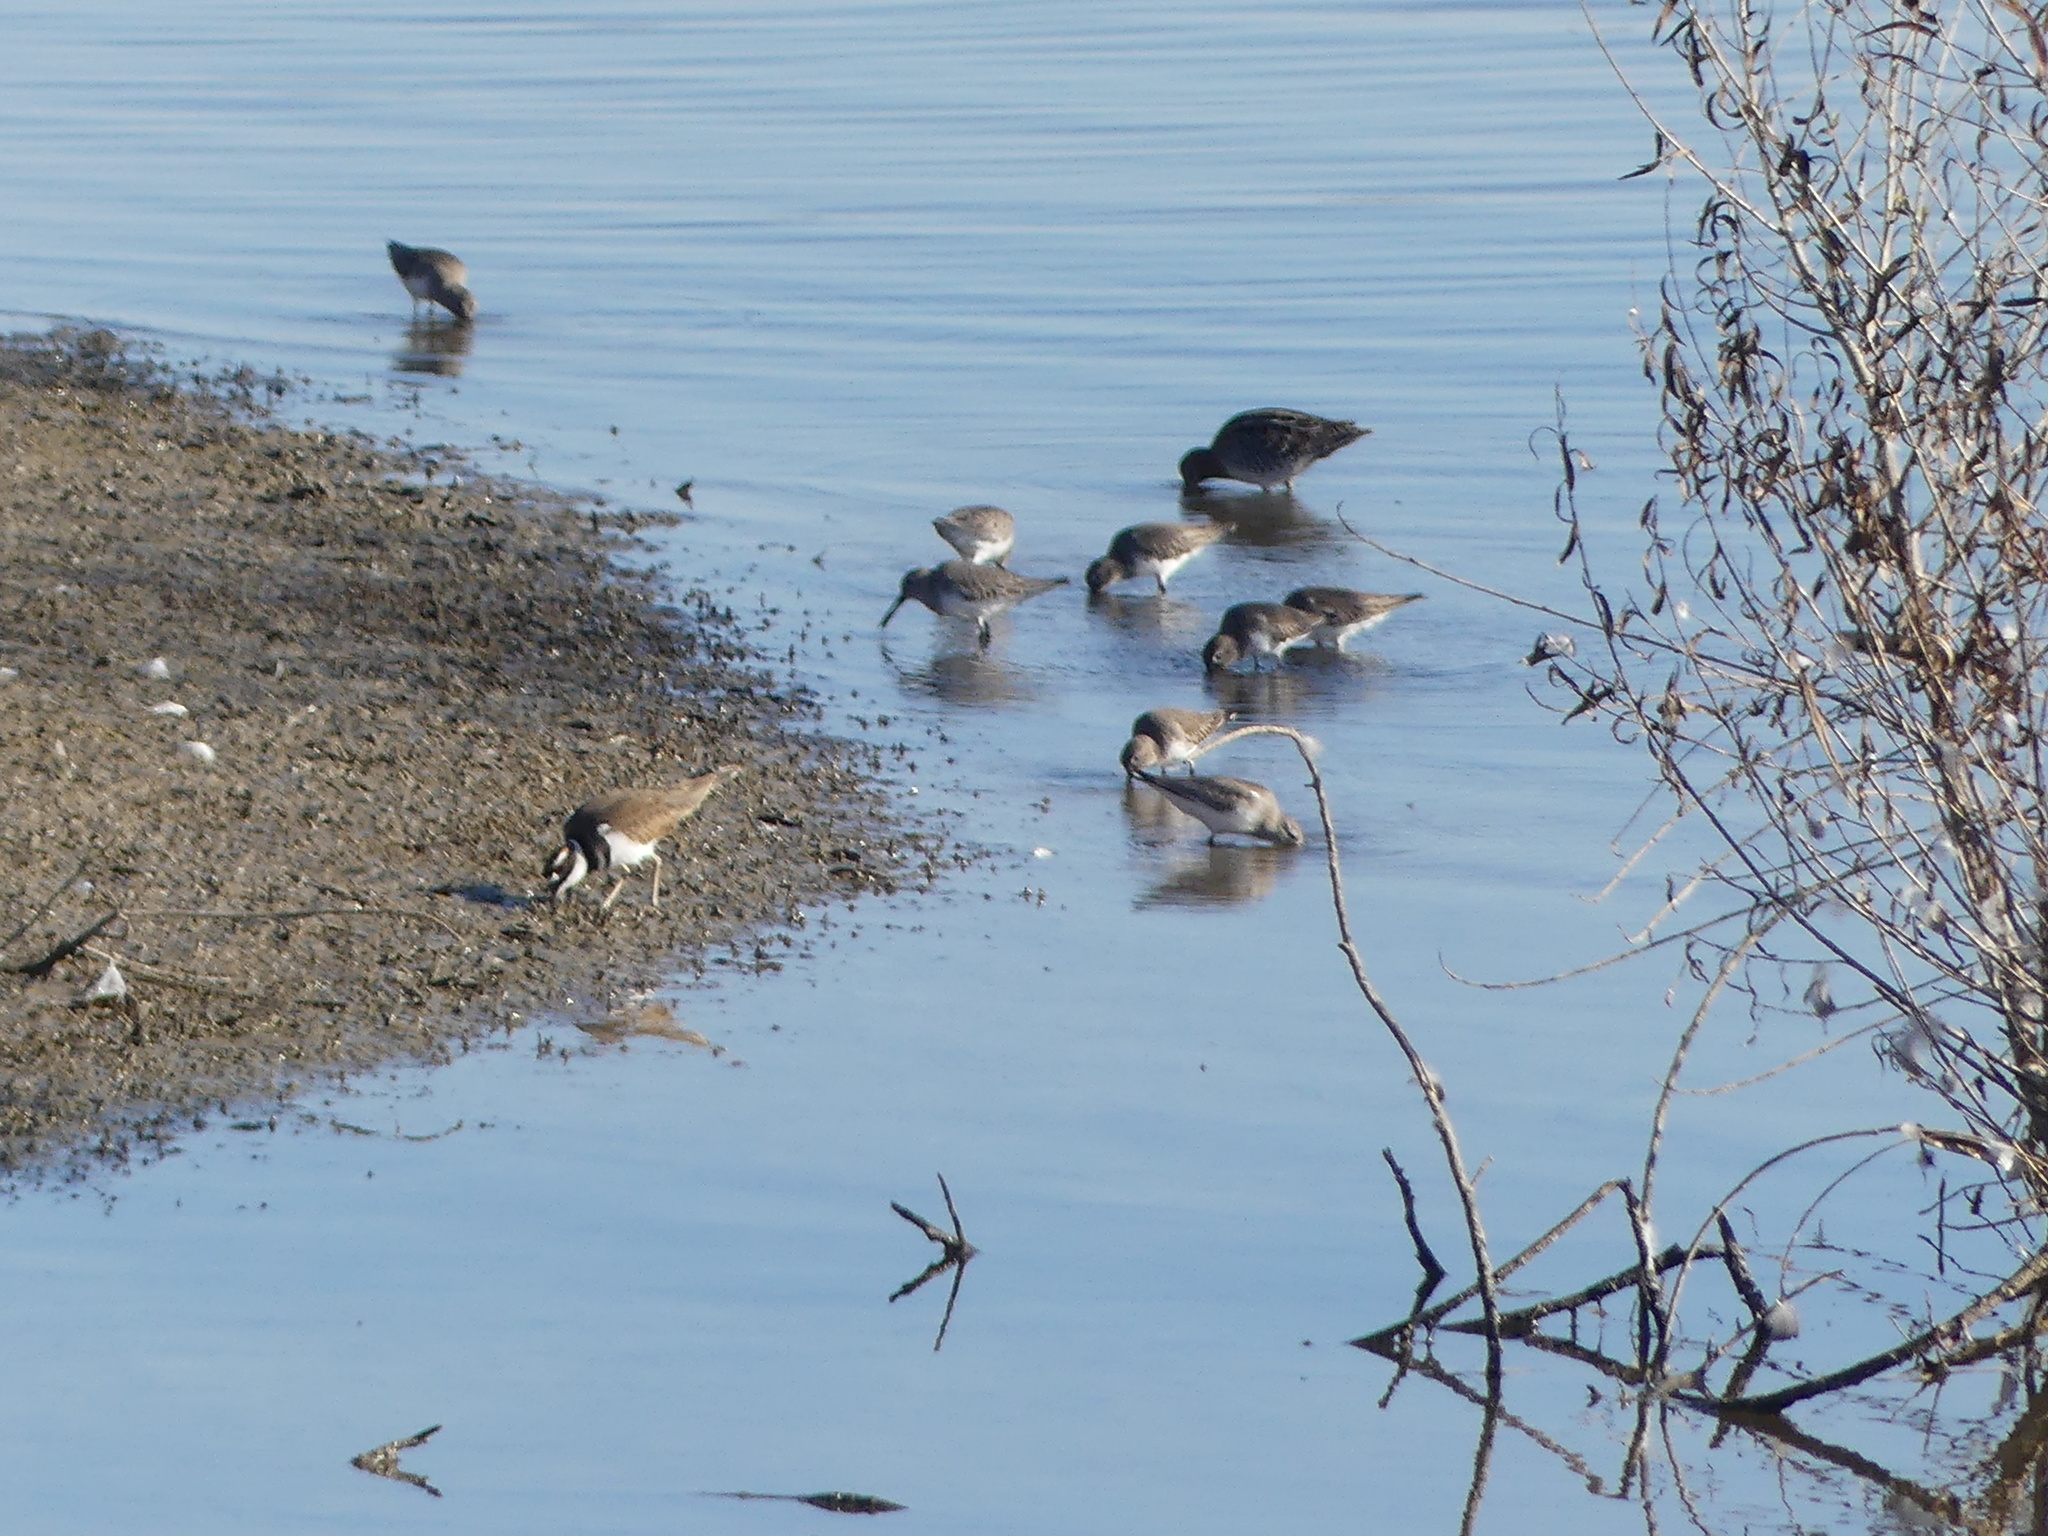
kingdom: Animalia
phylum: Chordata
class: Aves
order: Charadriiformes
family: Scolopacidae
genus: Calidris
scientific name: Calidris alpina
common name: Dunlin
